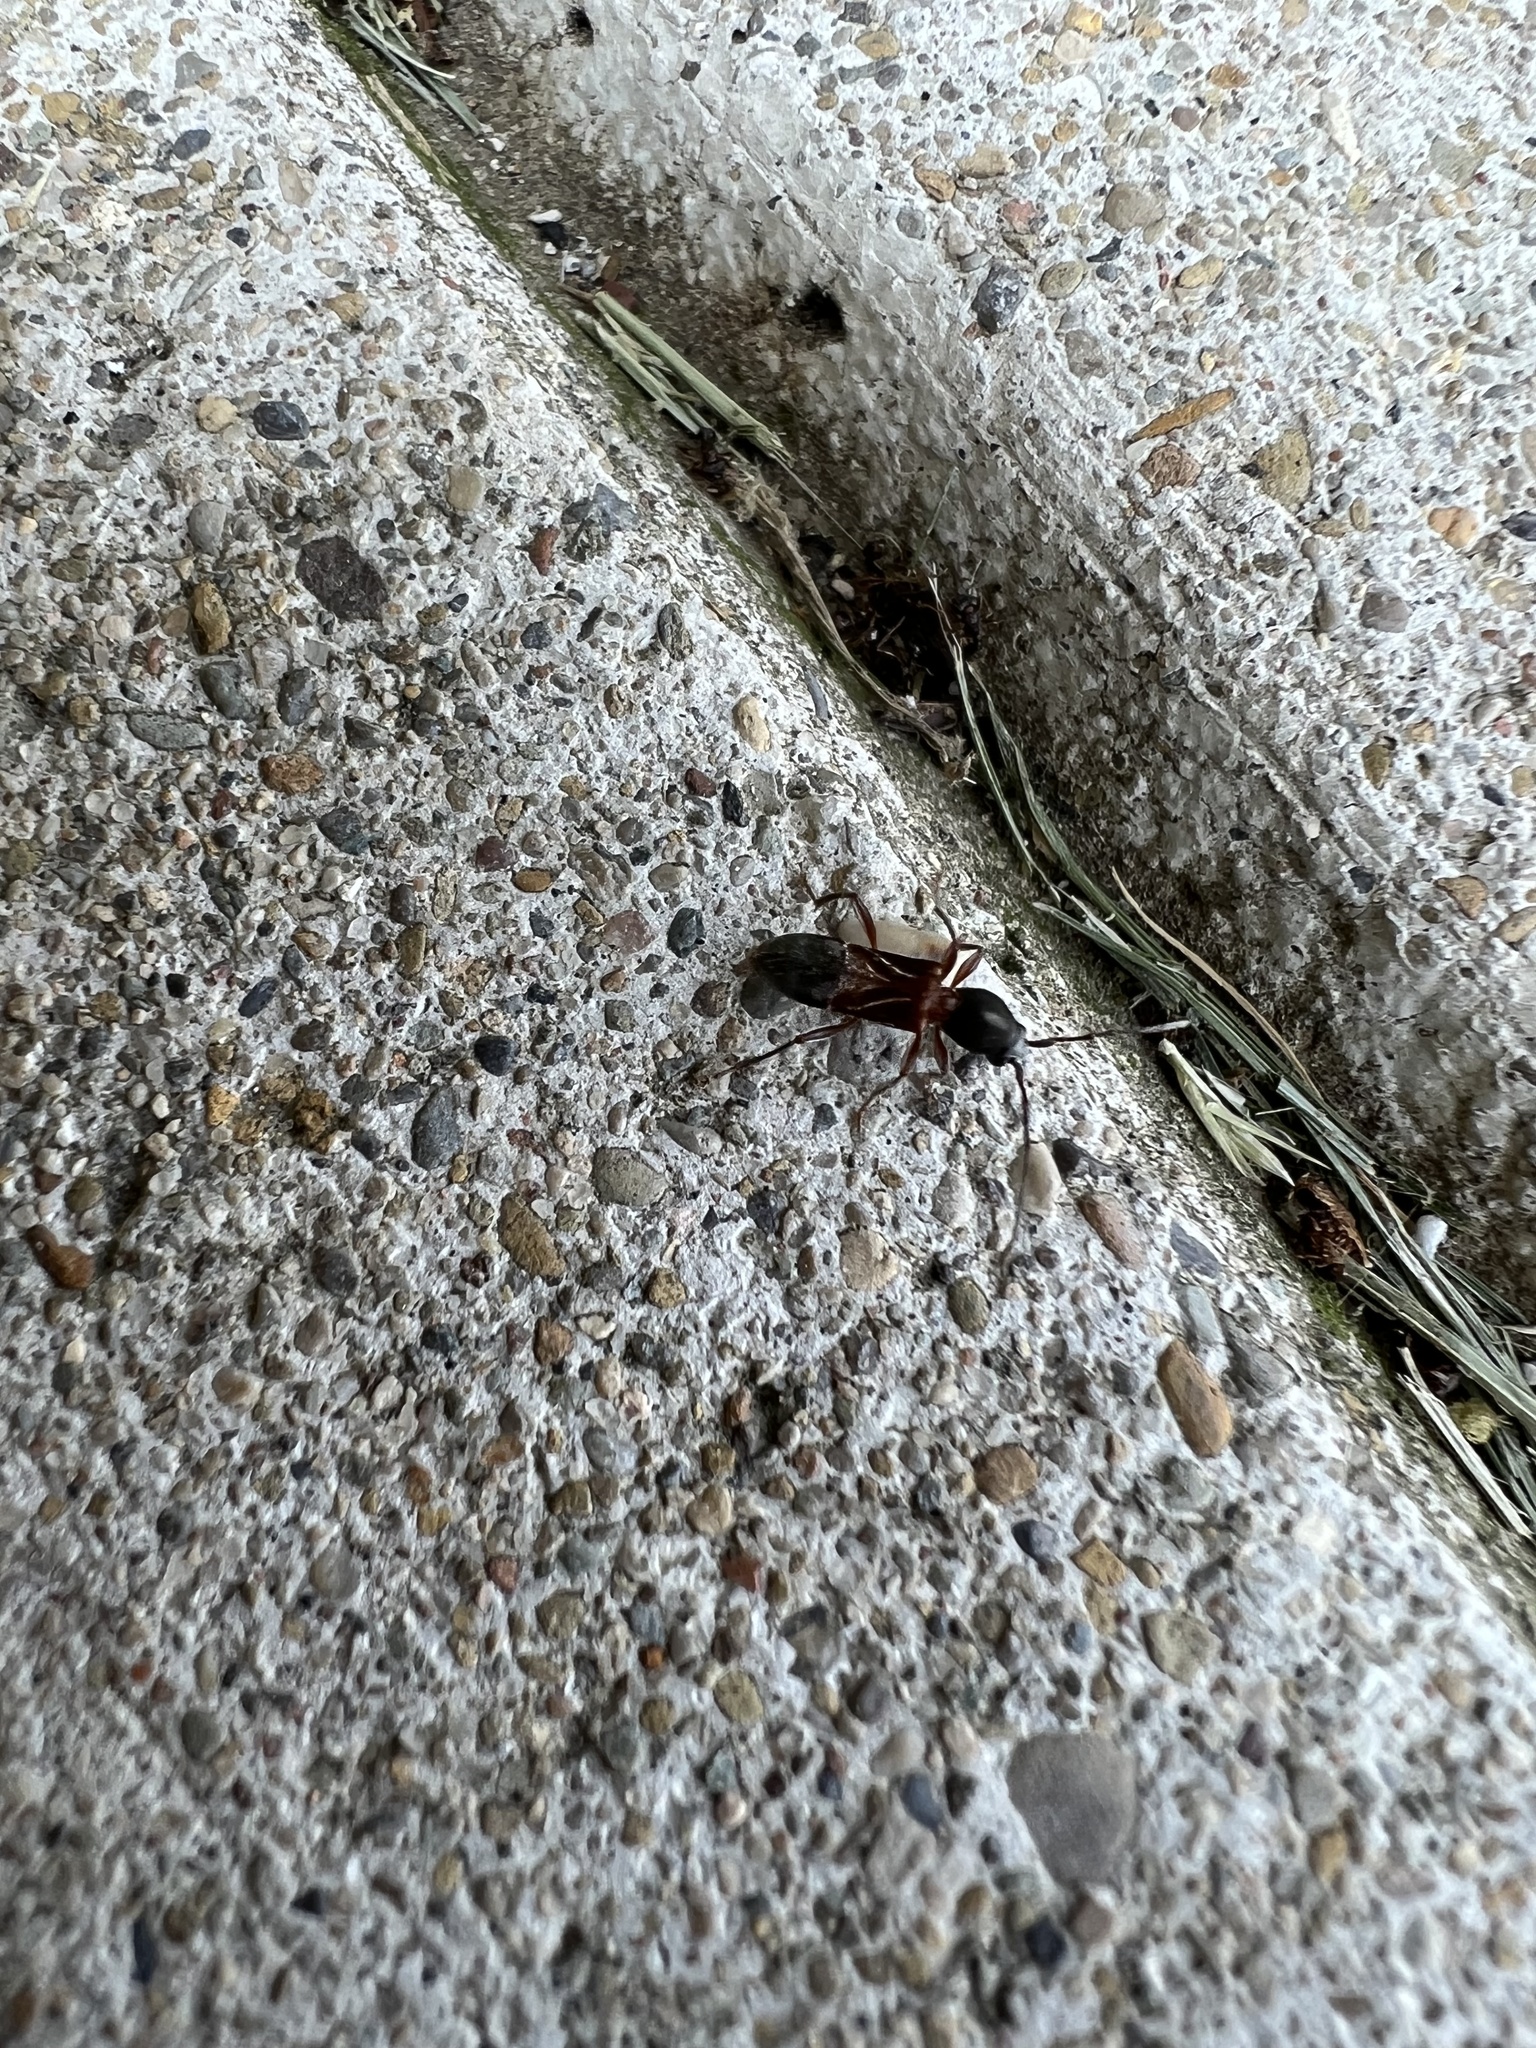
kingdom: Animalia
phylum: Arthropoda
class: Insecta
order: Coleoptera
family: Cerambycidae
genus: Cyrtophorus
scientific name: Cyrtophorus verrucosus
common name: Ant-like longhorn beetle
